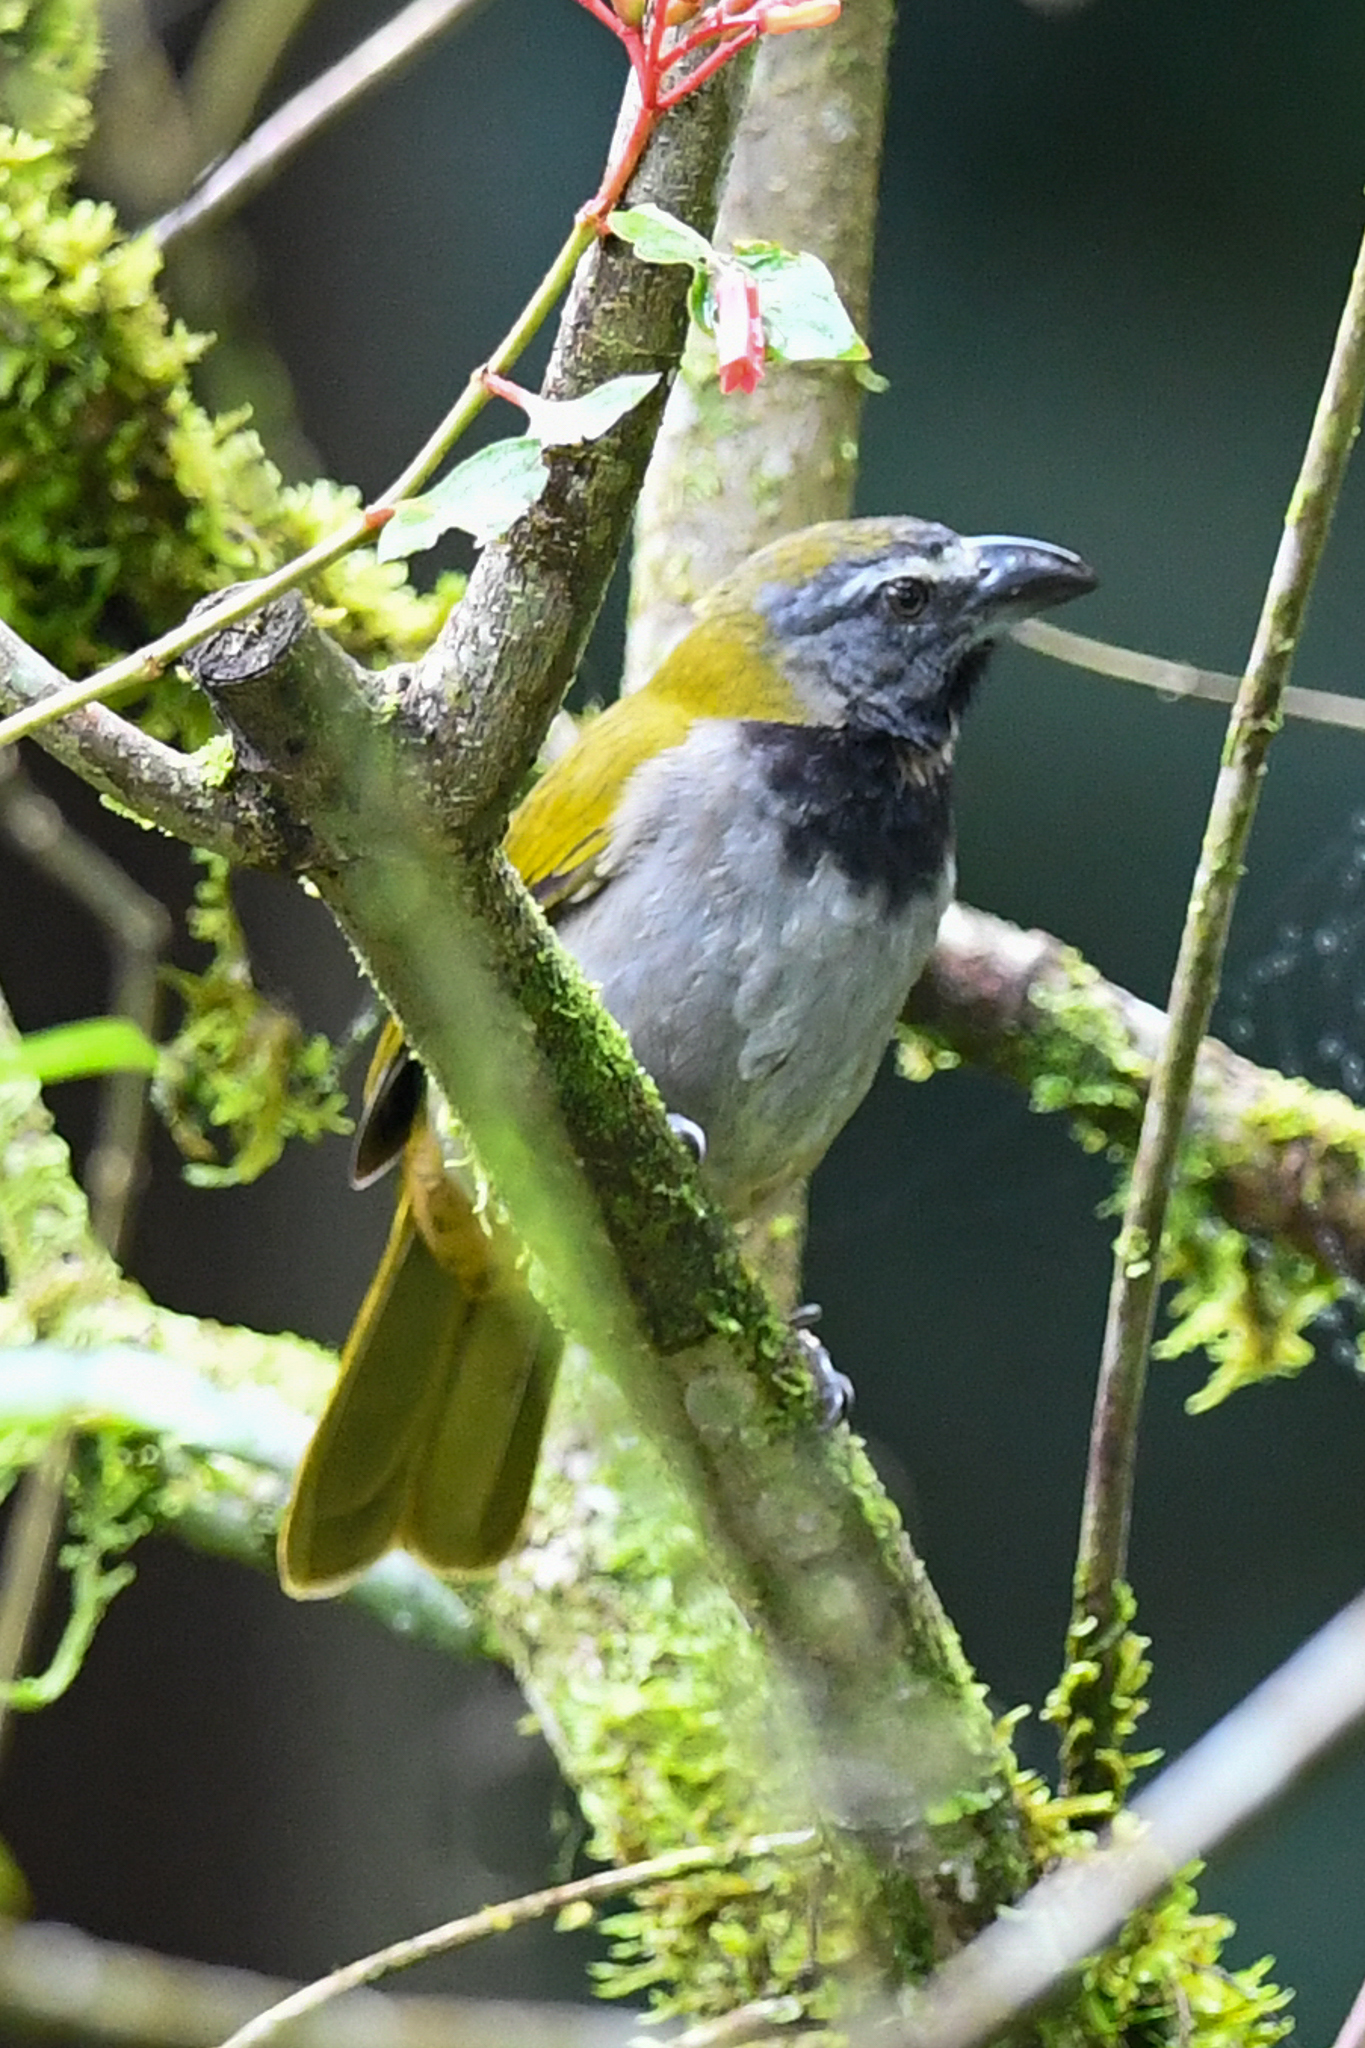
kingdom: Animalia
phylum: Chordata
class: Aves
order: Passeriformes
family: Thraupidae
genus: Saltator
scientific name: Saltator maximus
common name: Buff-throated saltator
